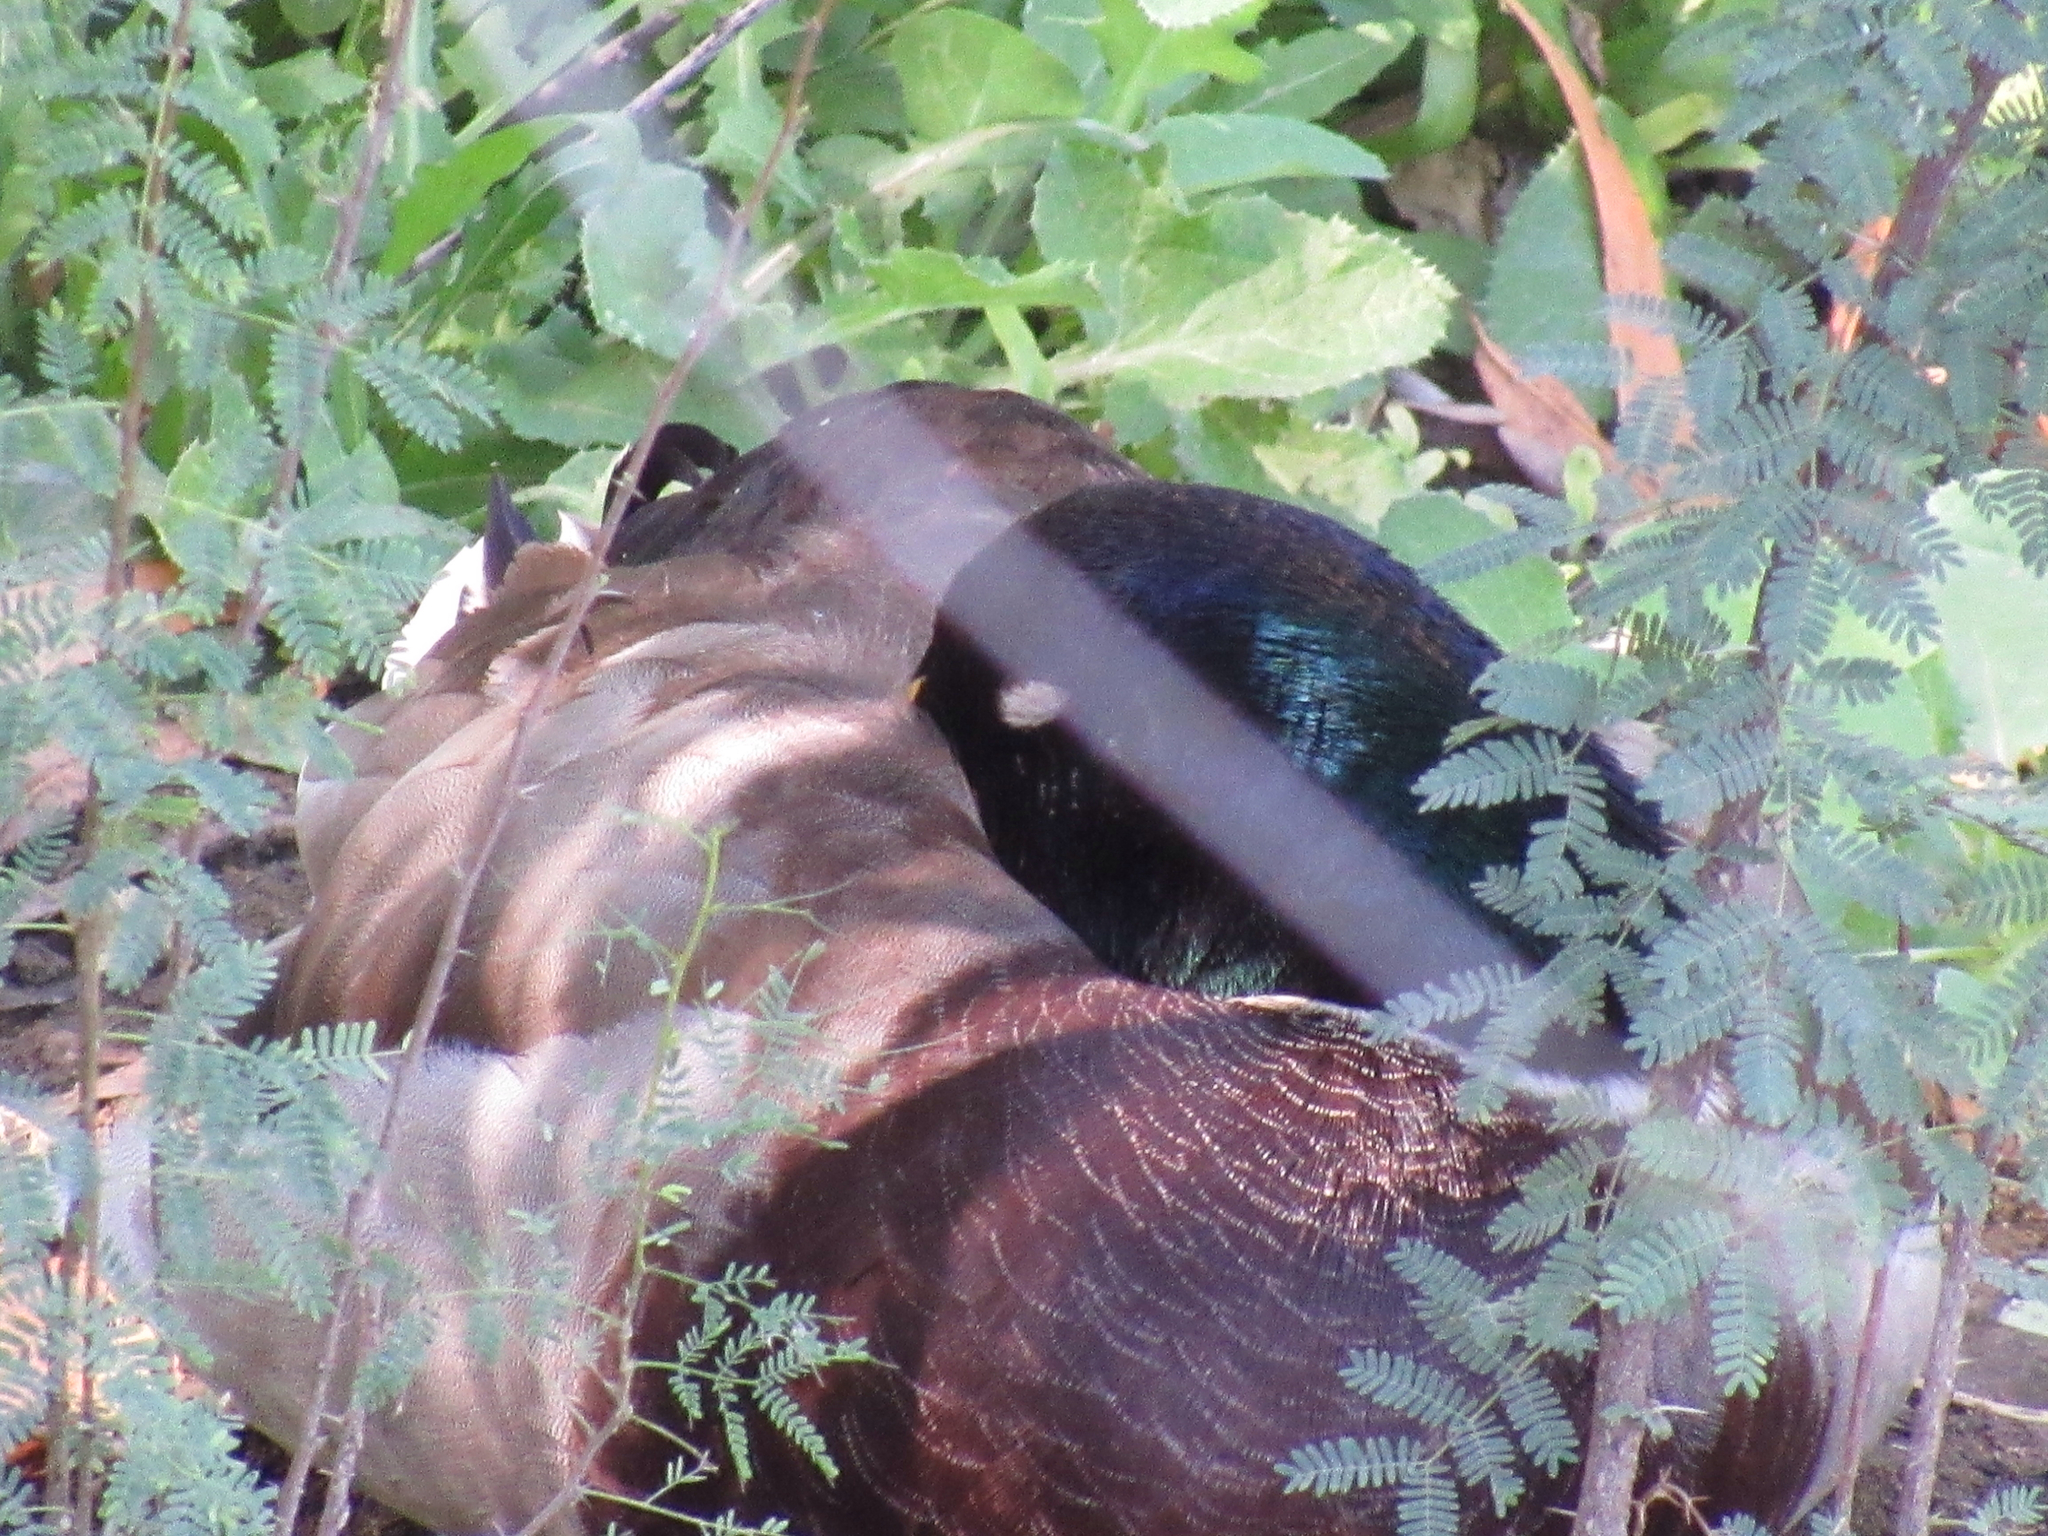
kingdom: Animalia
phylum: Chordata
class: Aves
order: Anseriformes
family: Anatidae
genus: Anas
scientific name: Anas platyrhynchos
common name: Mallard
